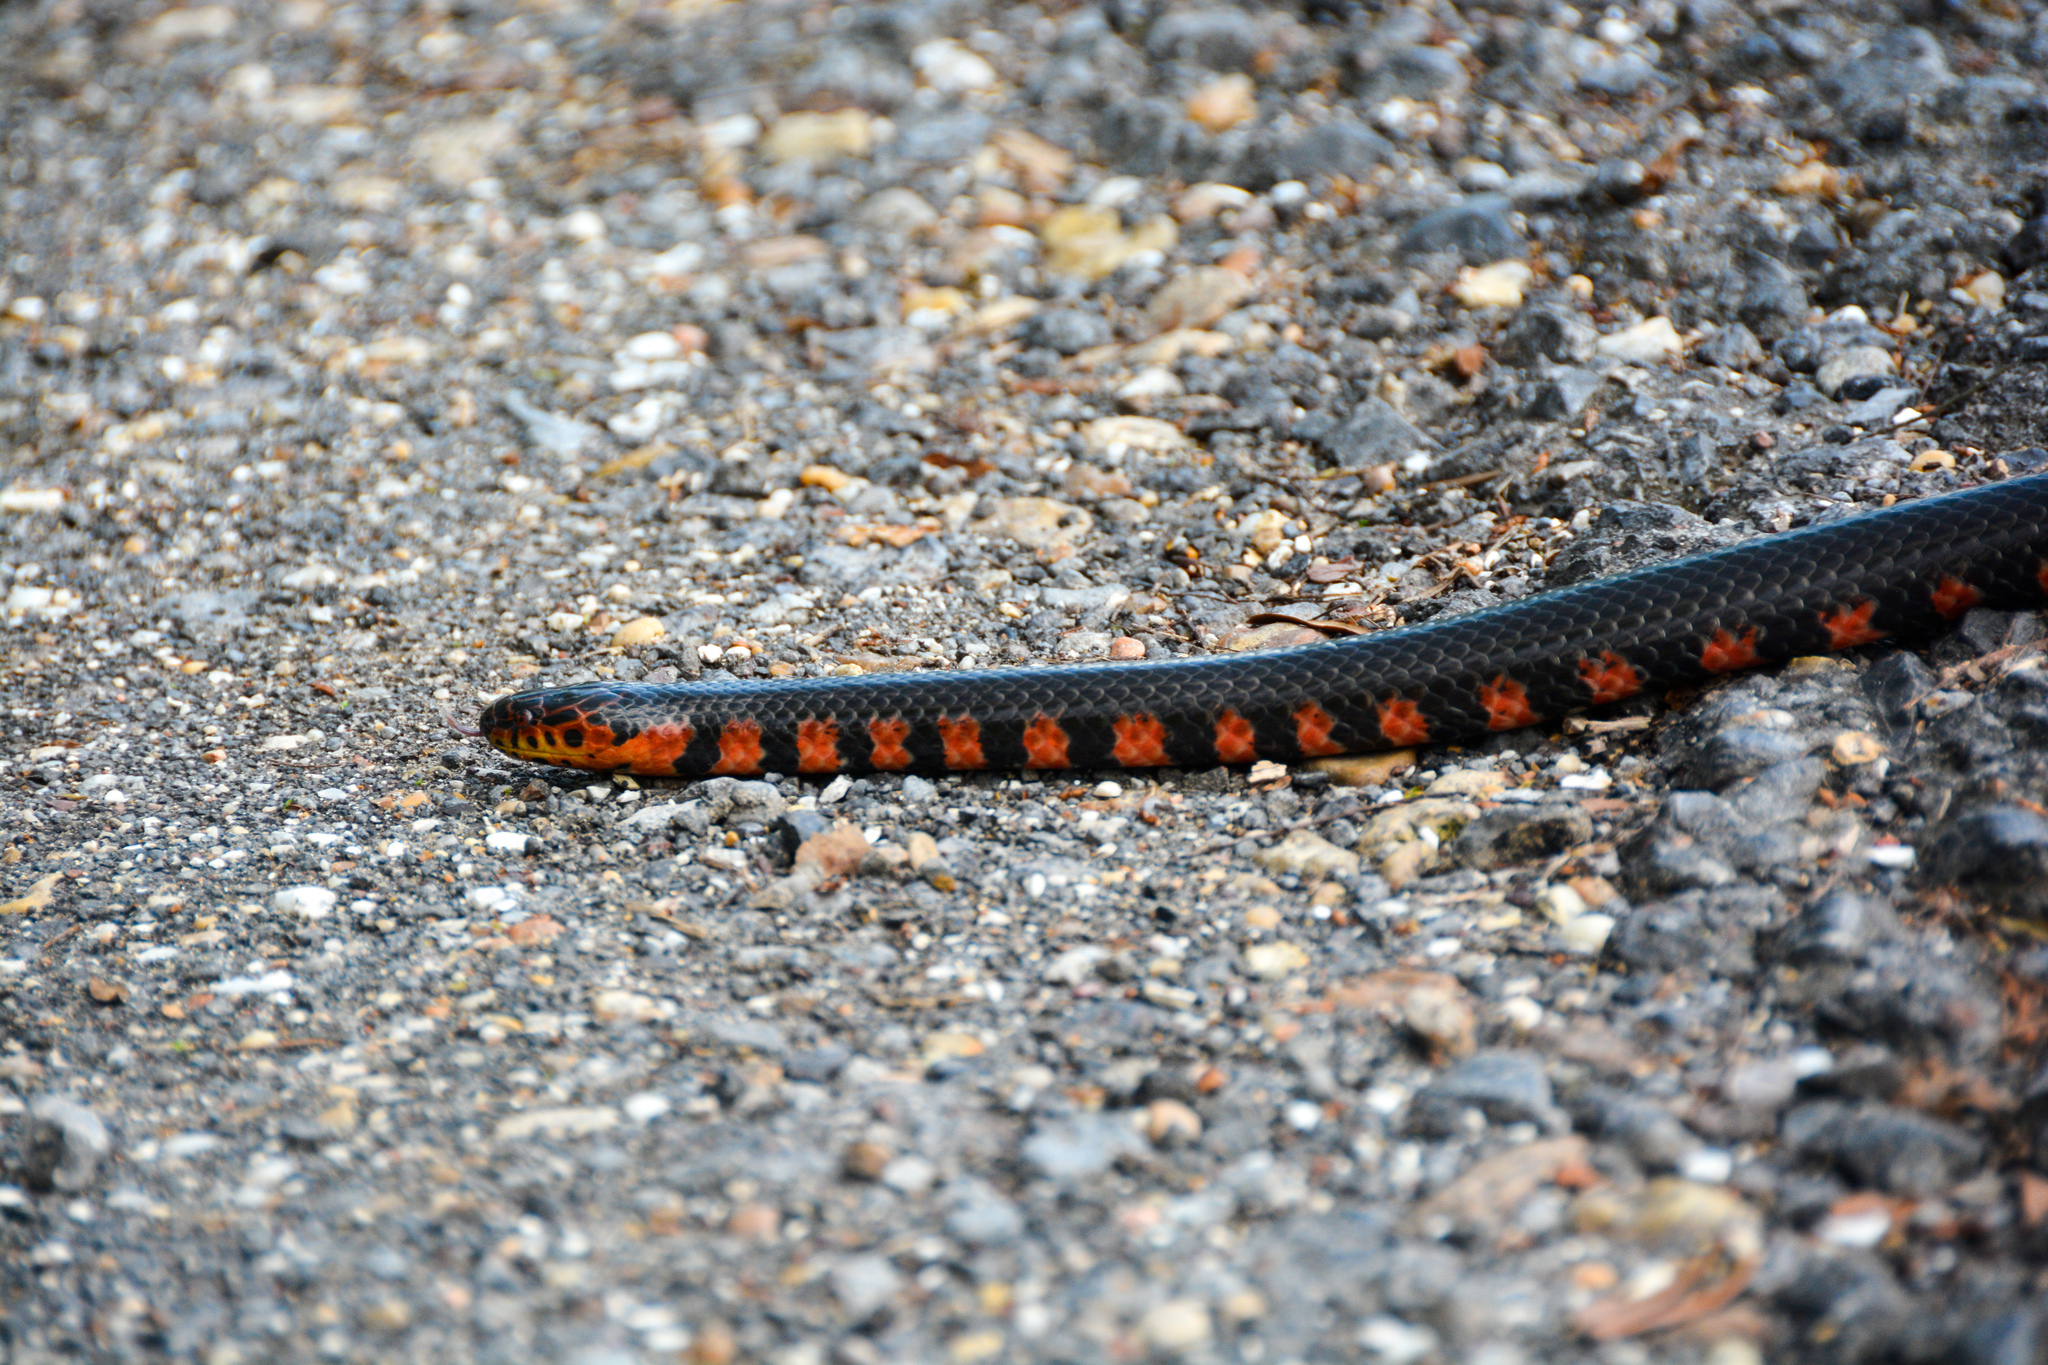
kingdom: Animalia
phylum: Chordata
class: Squamata
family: Colubridae
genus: Farancia
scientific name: Farancia abacura
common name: Mud snake
